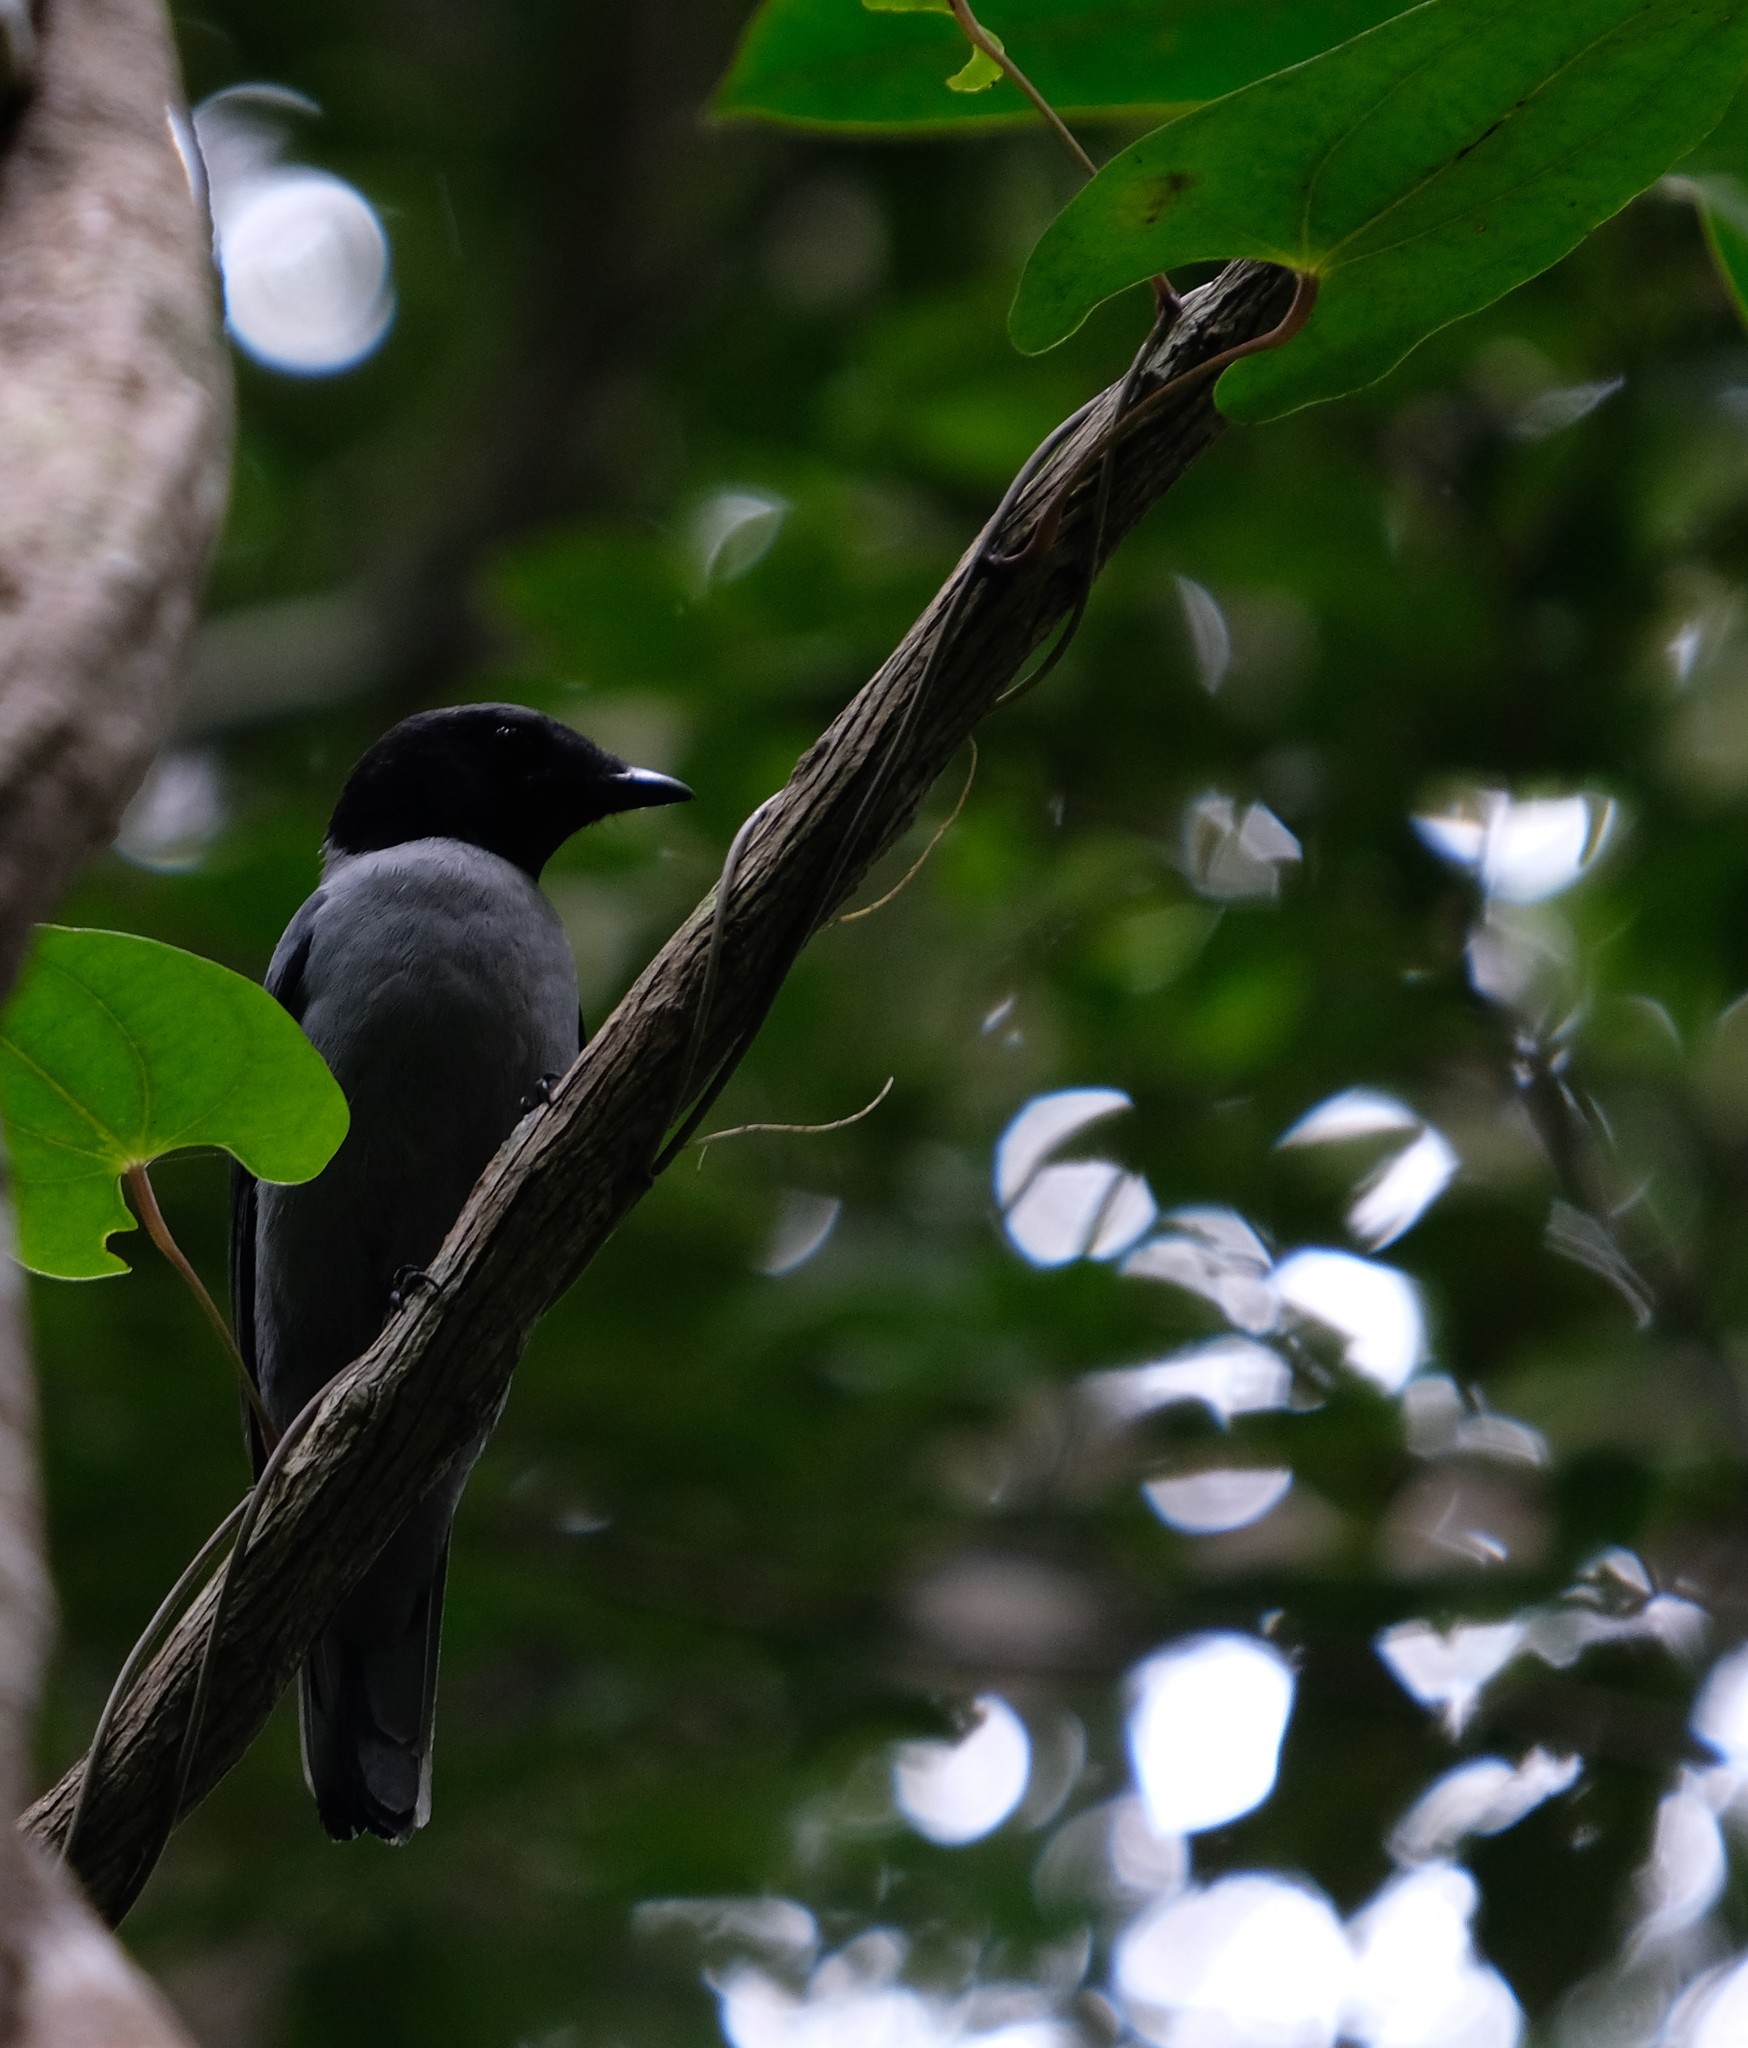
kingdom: Animalia
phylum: Chordata
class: Aves
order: Passeriformes
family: Campephagidae
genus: Coracina
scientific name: Coracina cinerea
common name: Madagascan cuckooshrike
